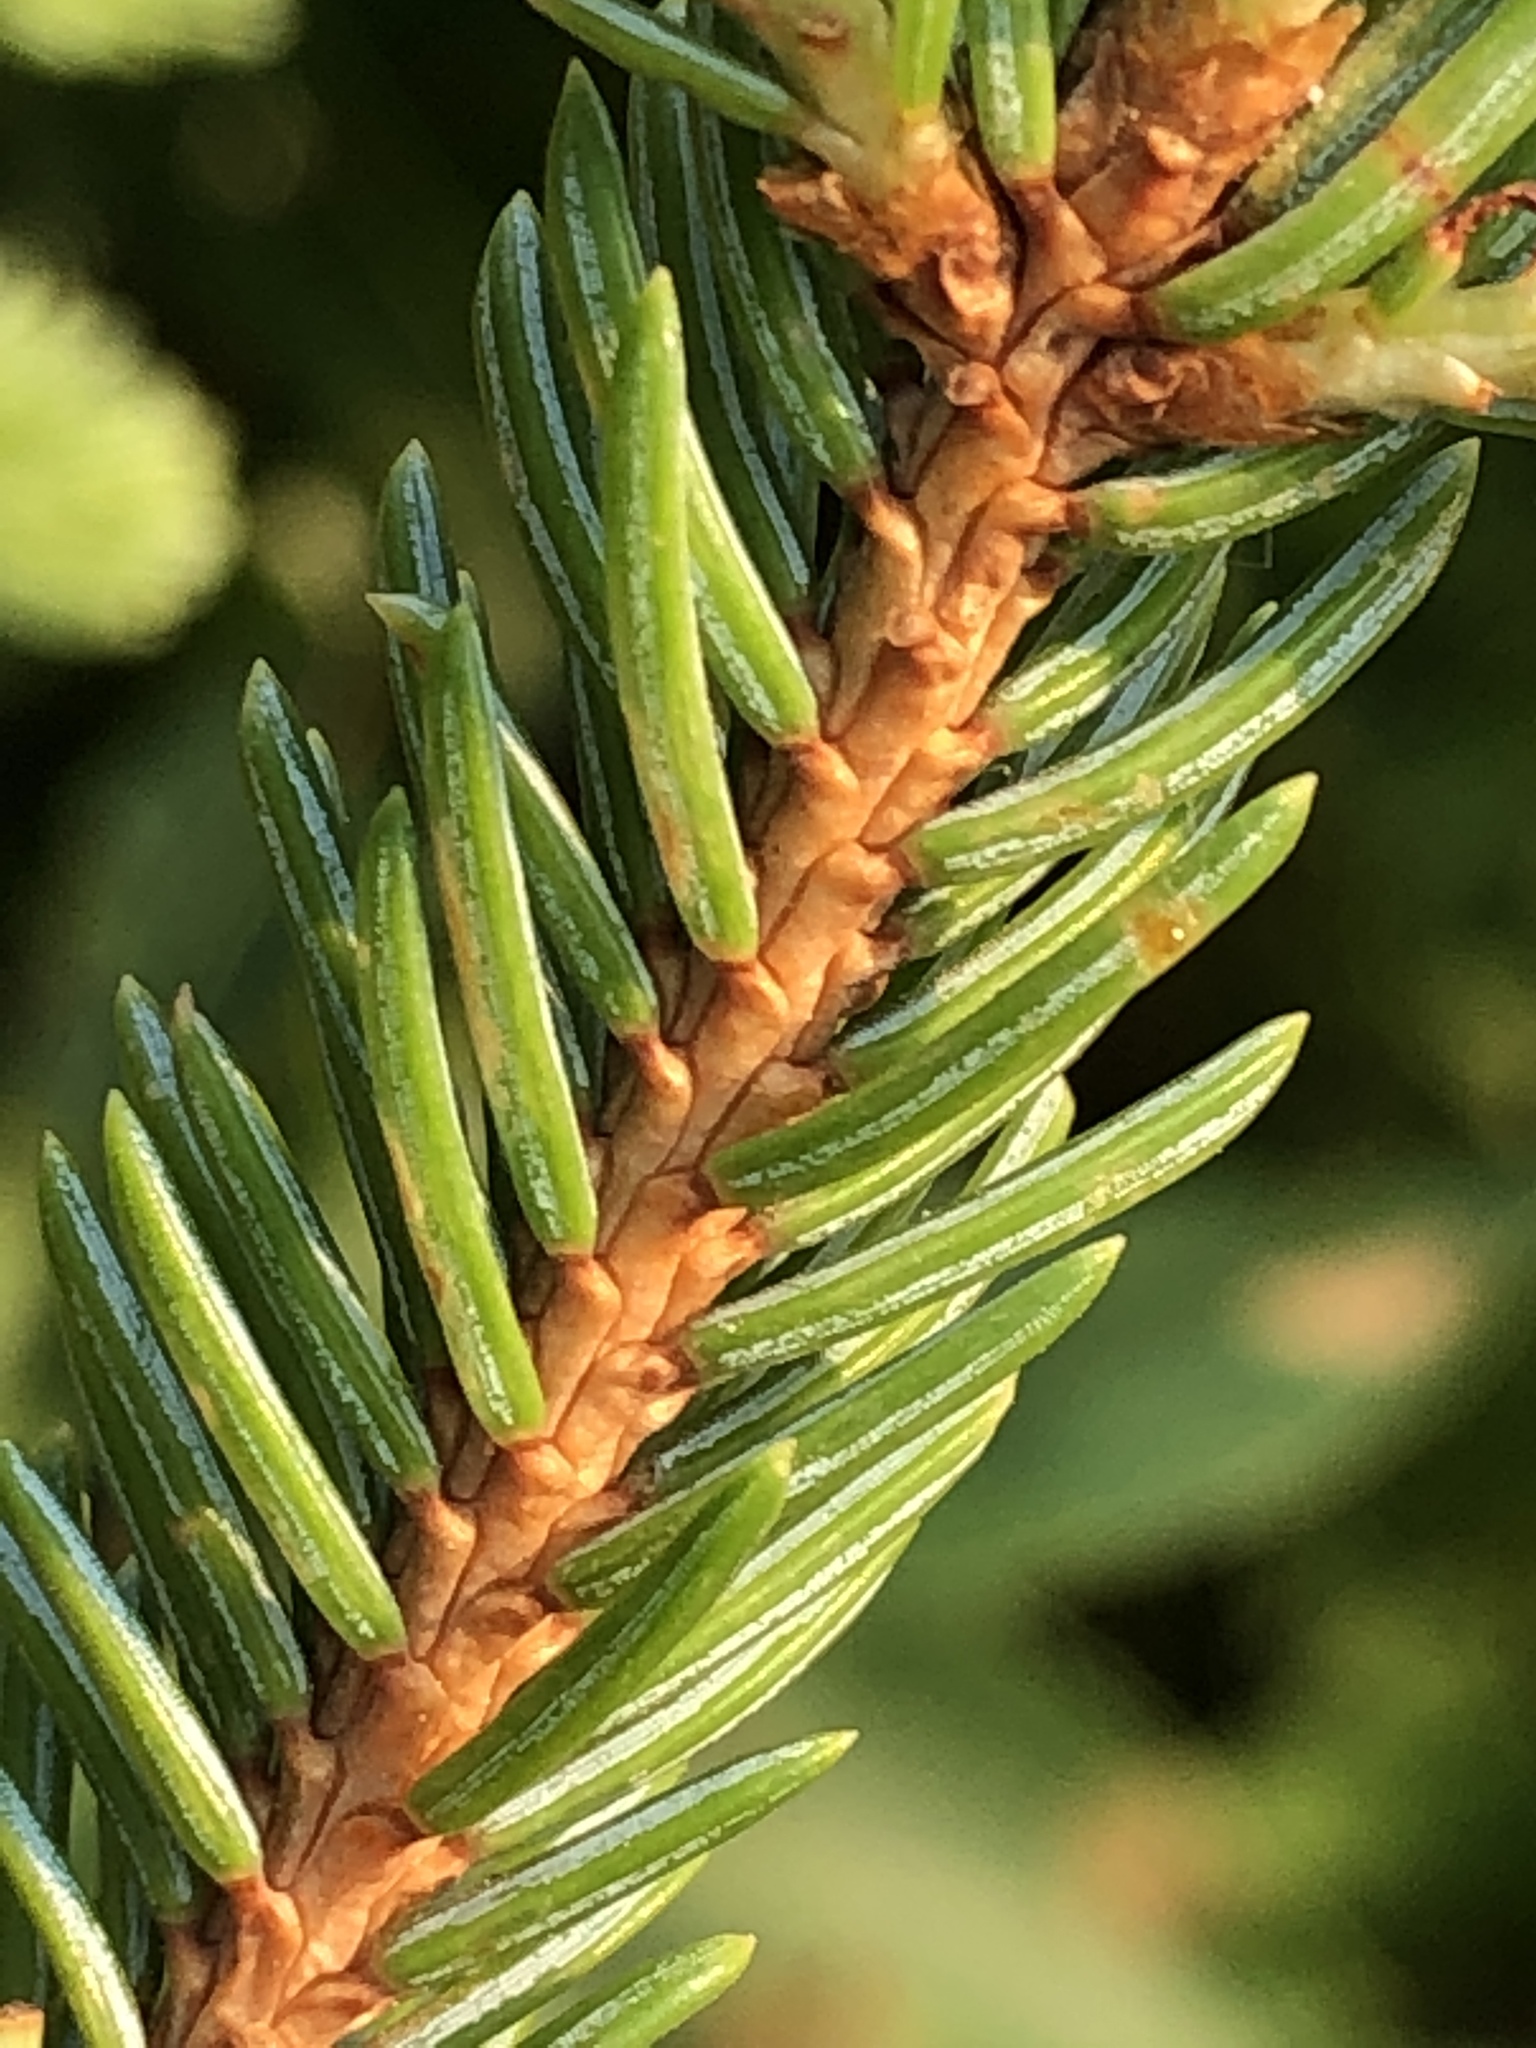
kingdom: Plantae
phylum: Tracheophyta
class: Pinopsida
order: Pinales
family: Pinaceae
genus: Picea
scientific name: Picea glauca
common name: White spruce
